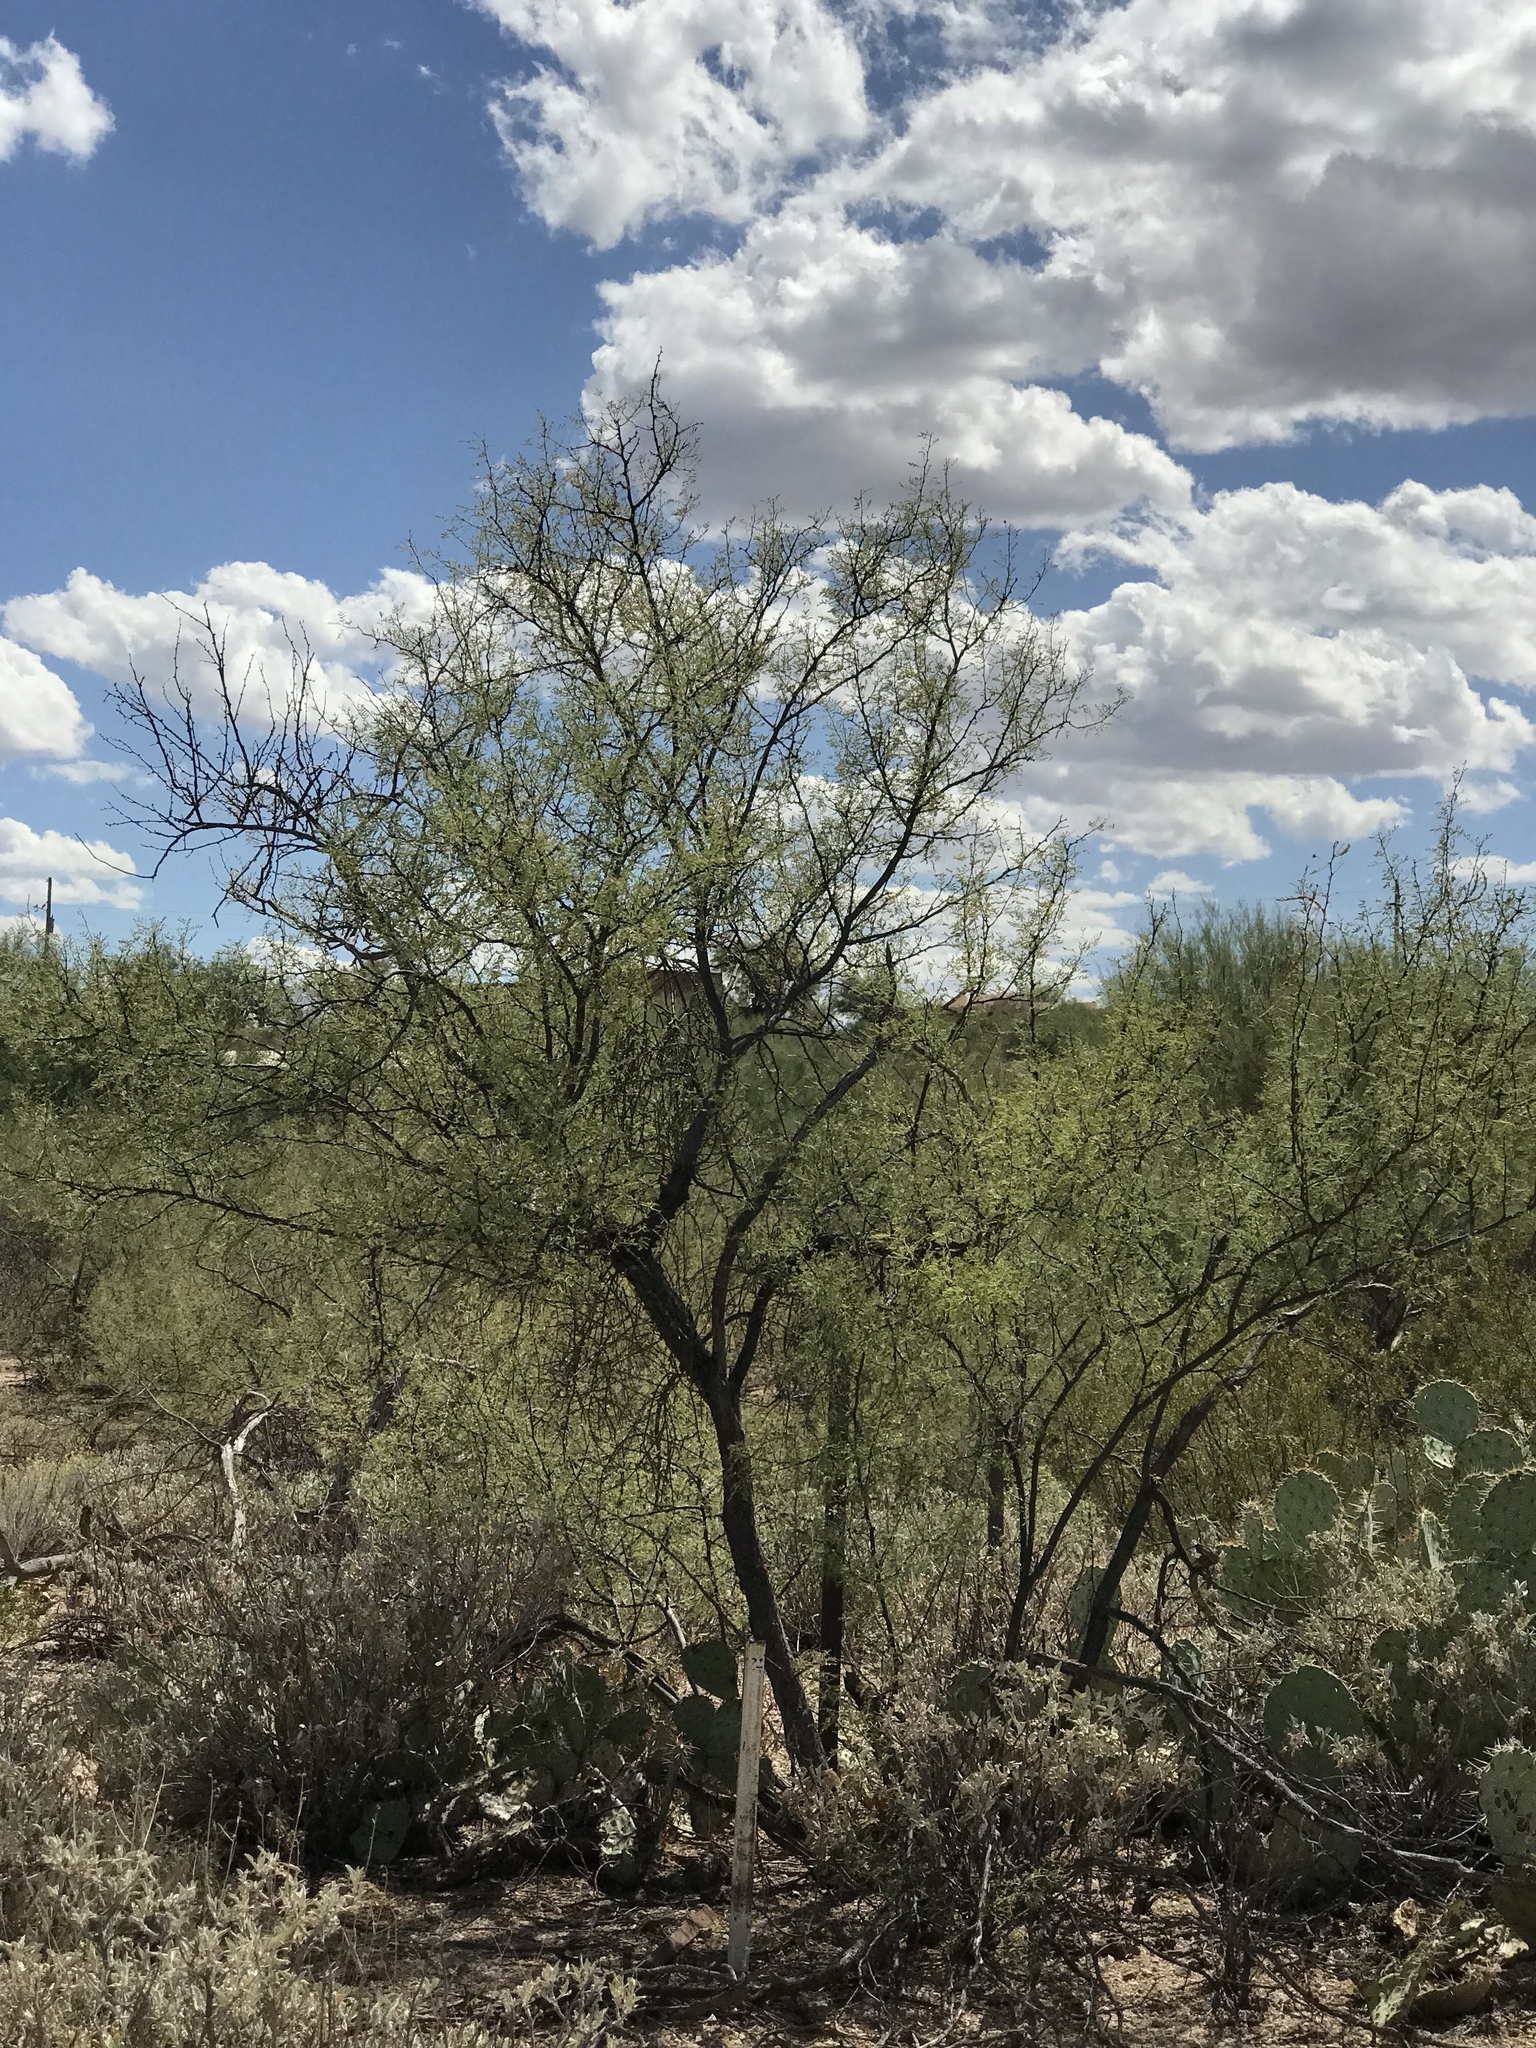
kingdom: Plantae
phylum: Tracheophyta
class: Magnoliopsida
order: Fabales
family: Fabaceae
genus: Prosopis
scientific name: Prosopis velutina
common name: Velvet mesquite
